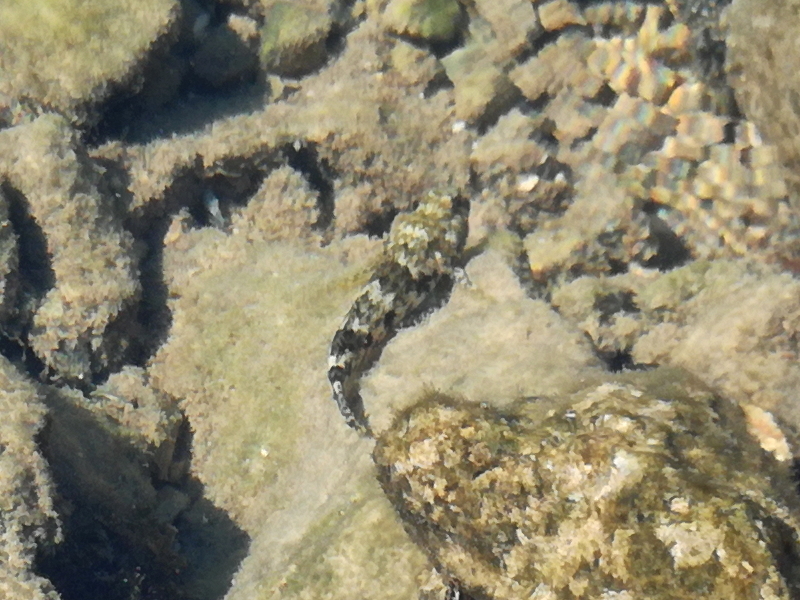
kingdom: Animalia
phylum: Chordata
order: Perciformes
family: Gobiidae
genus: Gobius
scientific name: Gobius cobitis
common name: Giant goby
